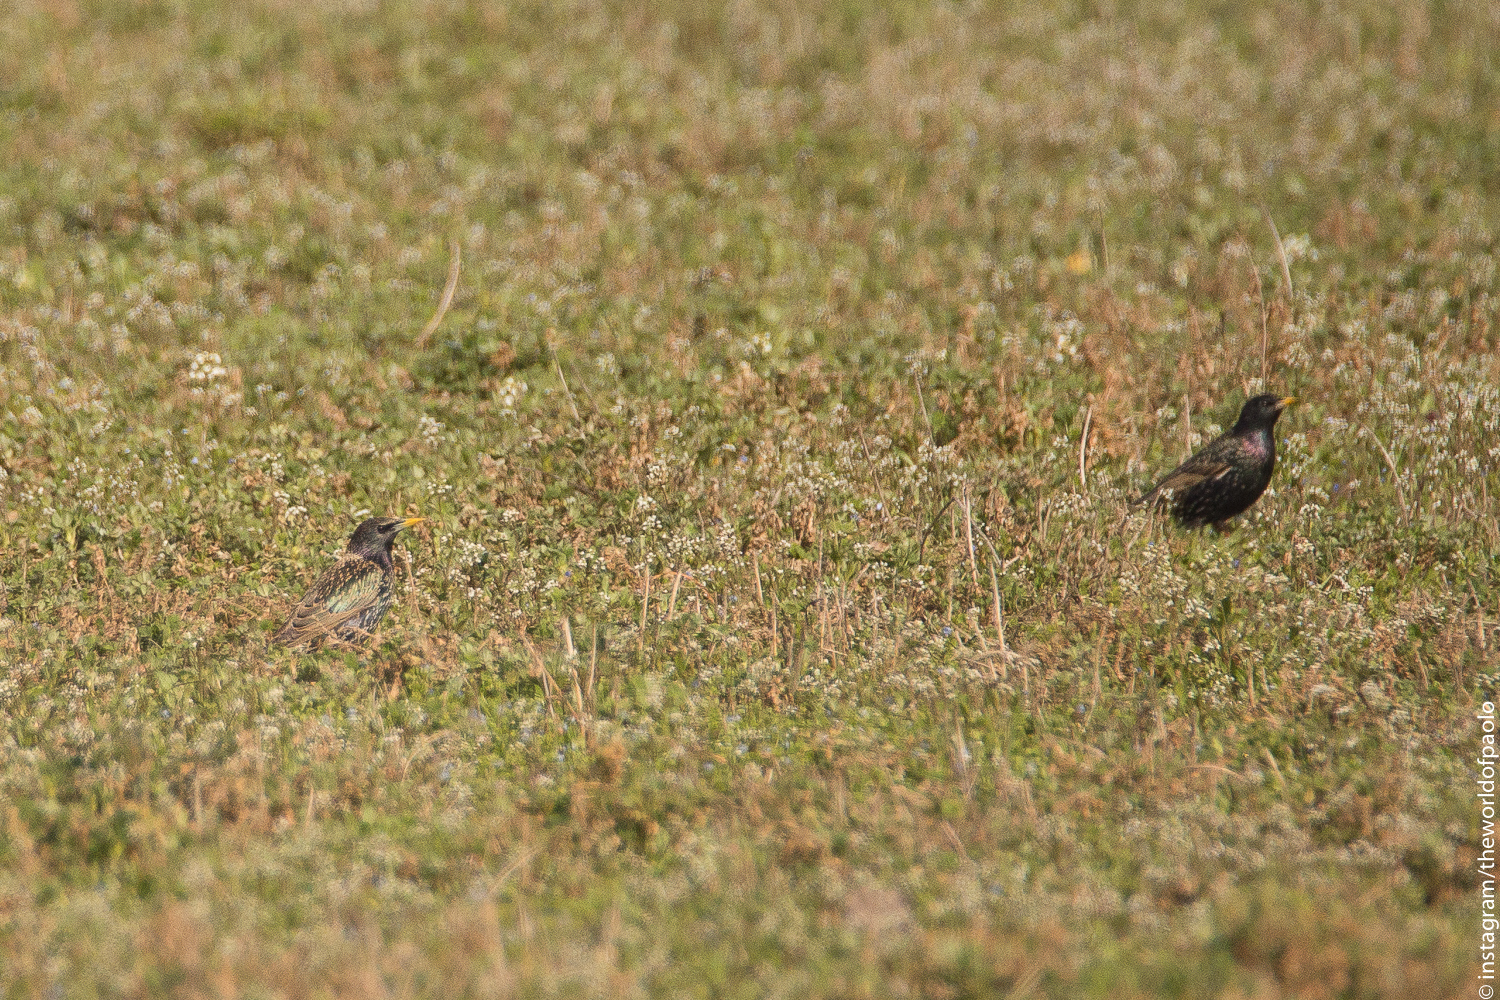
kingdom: Animalia
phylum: Chordata
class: Aves
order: Passeriformes
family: Sturnidae
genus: Sturnus
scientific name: Sturnus vulgaris
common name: Common starling
